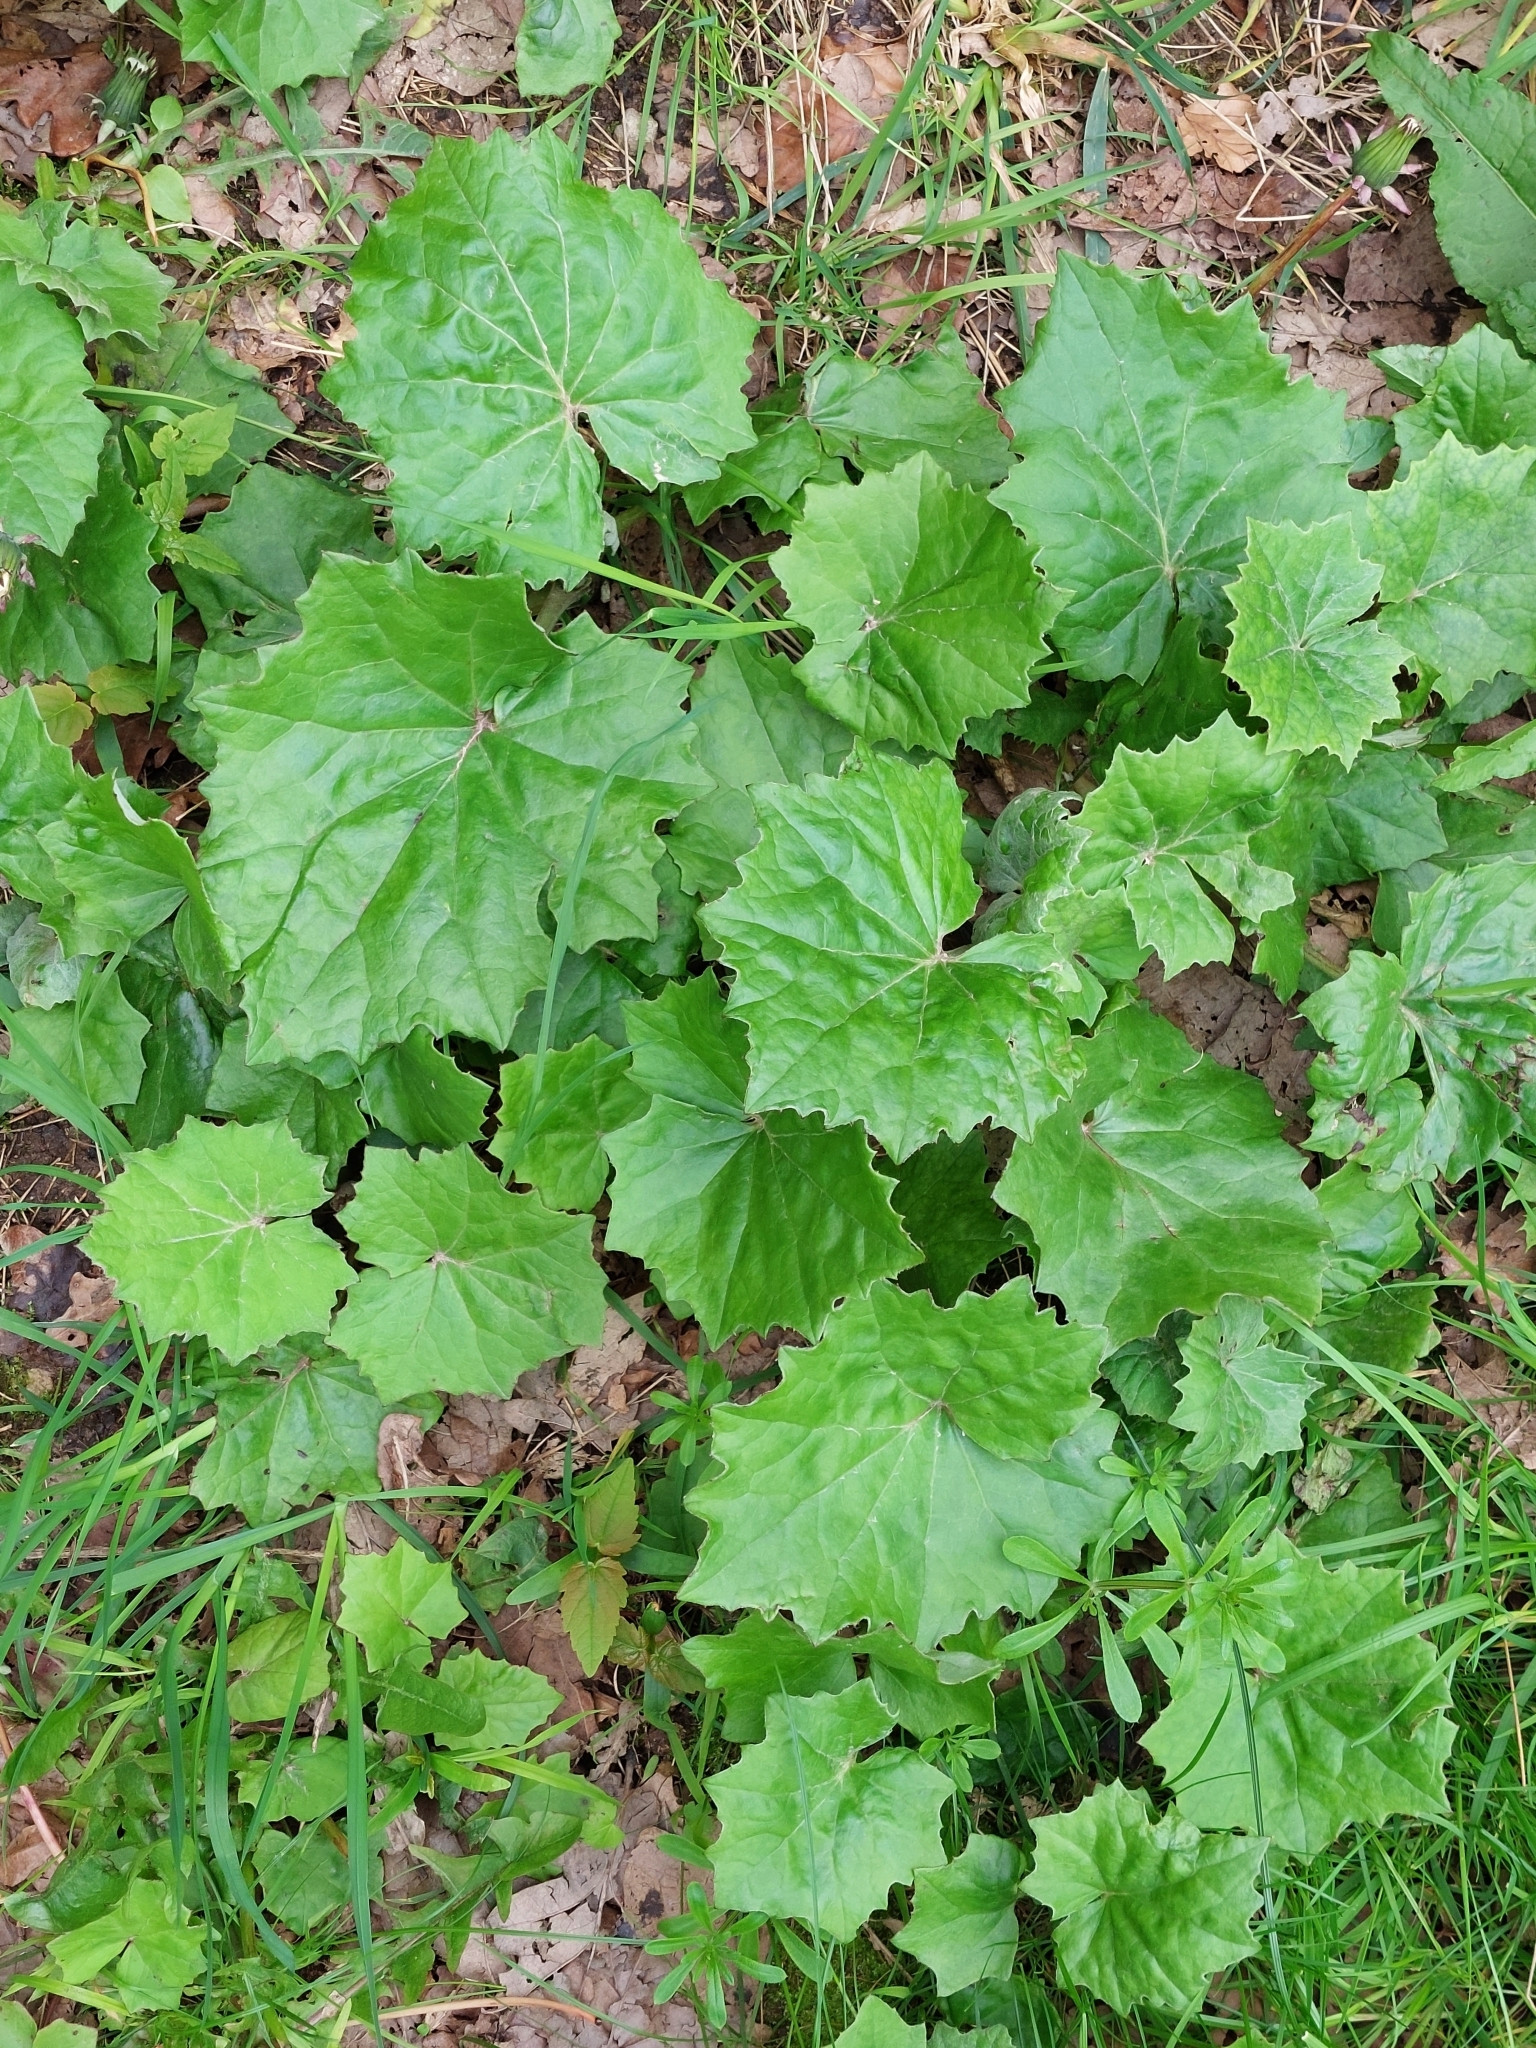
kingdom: Plantae
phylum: Tracheophyta
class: Magnoliopsida
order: Asterales
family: Asteraceae
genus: Tussilago
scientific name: Tussilago farfara
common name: Coltsfoot
